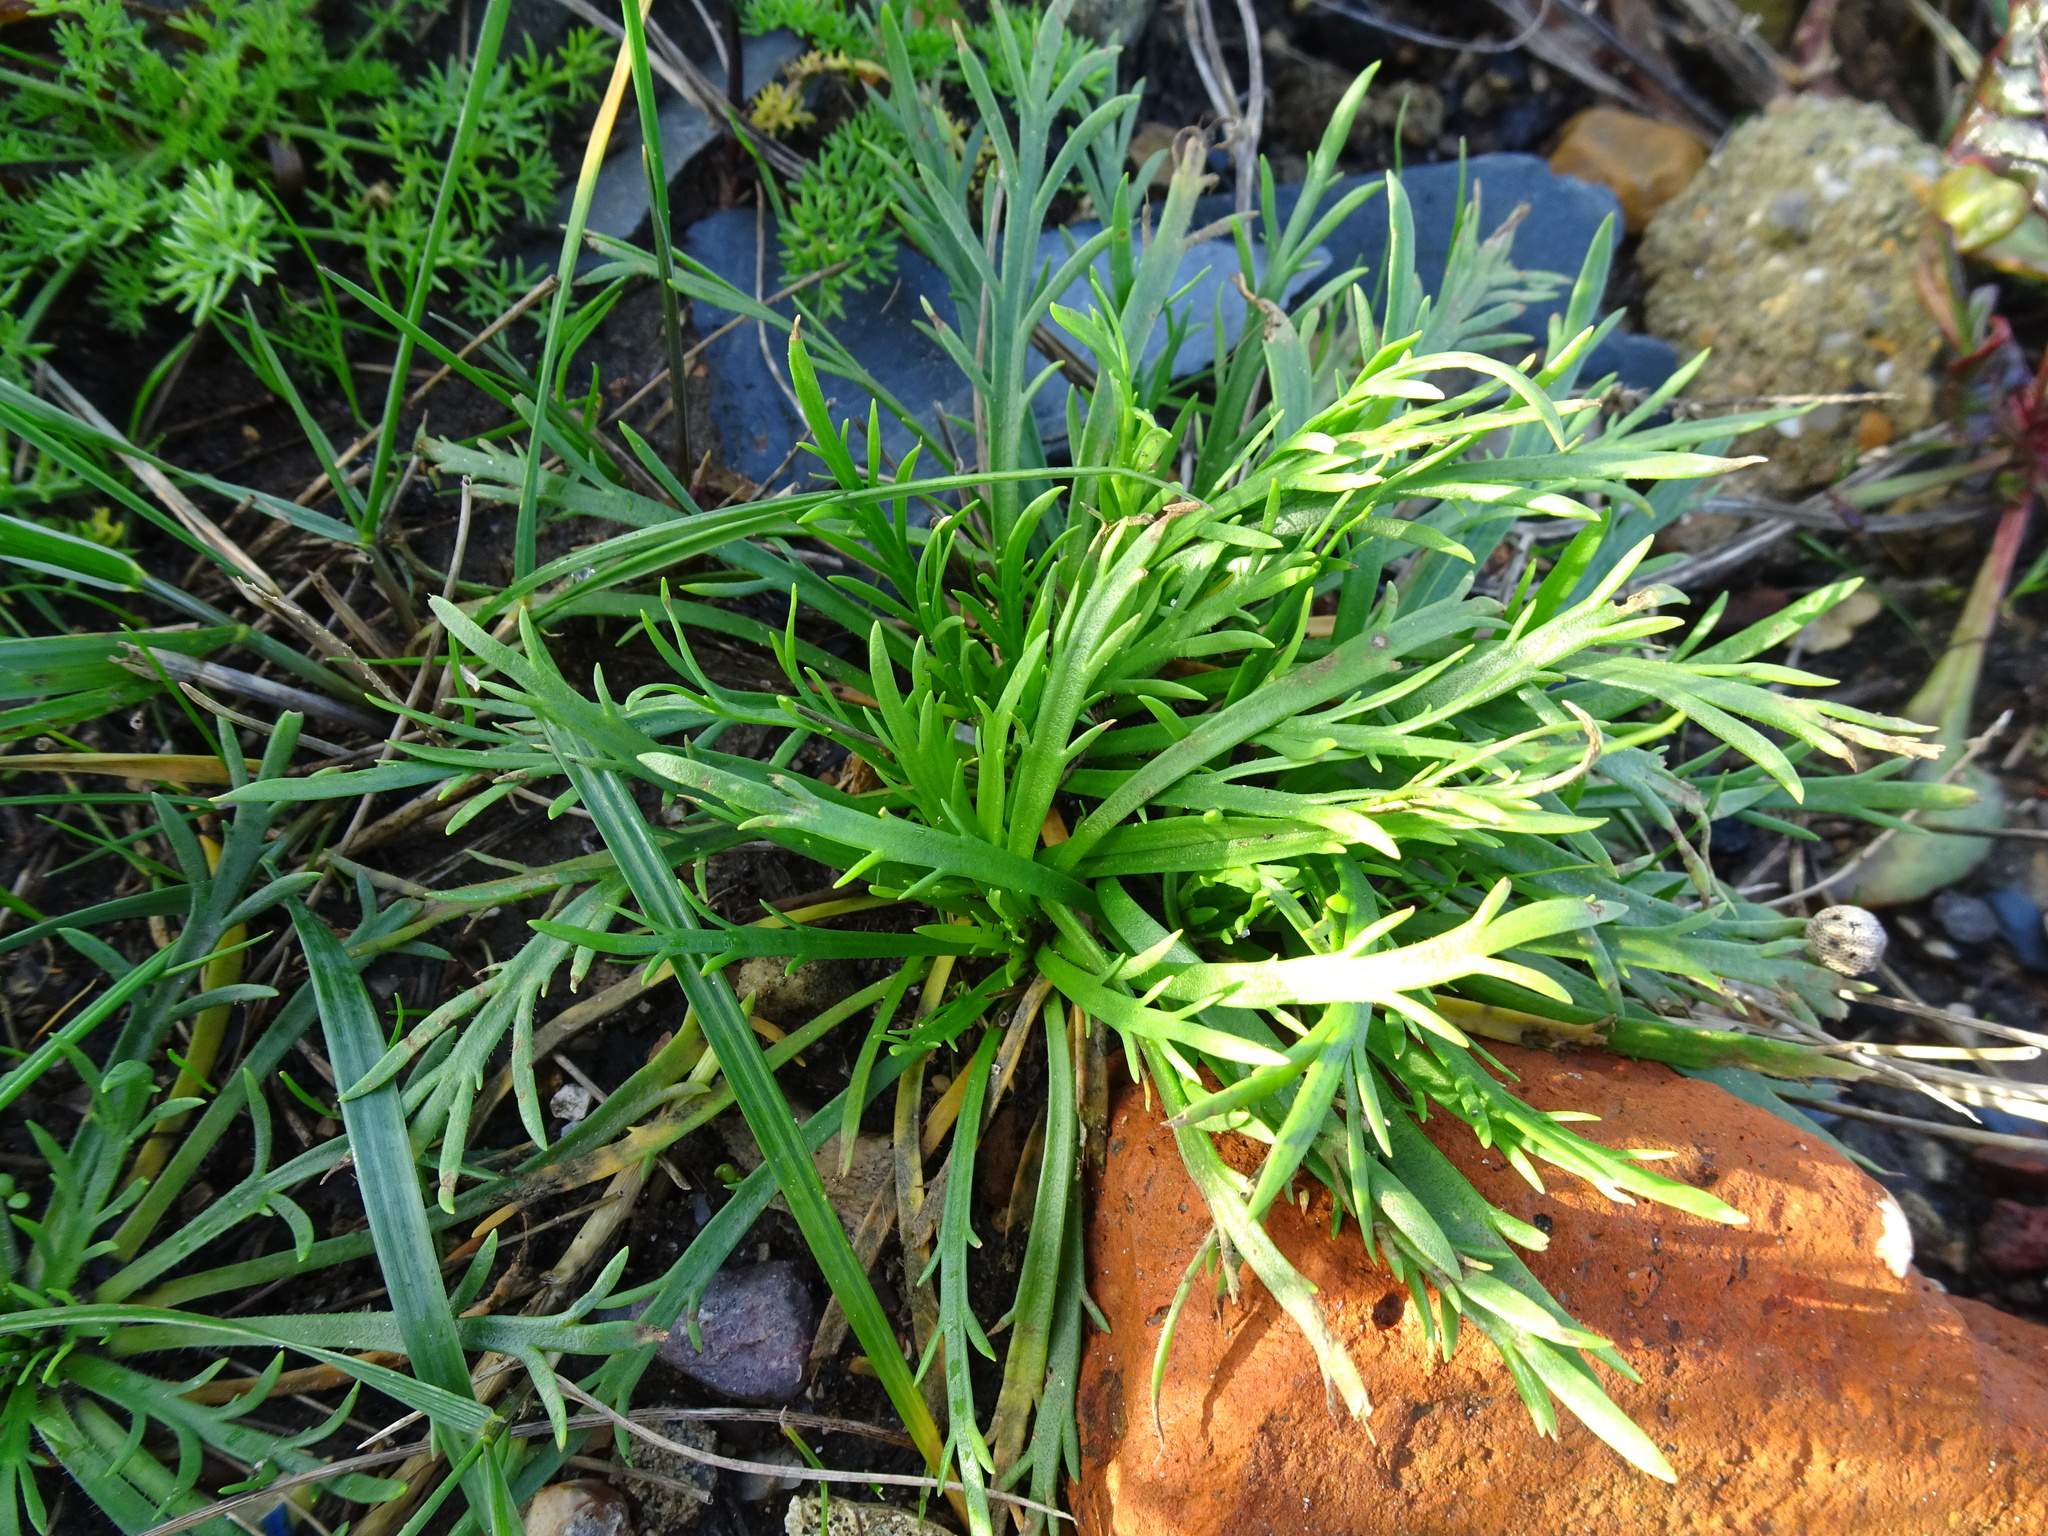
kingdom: Plantae
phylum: Tracheophyta
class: Magnoliopsida
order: Lamiales
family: Plantaginaceae
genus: Plantago
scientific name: Plantago coronopus
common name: Buck's-horn plantain
